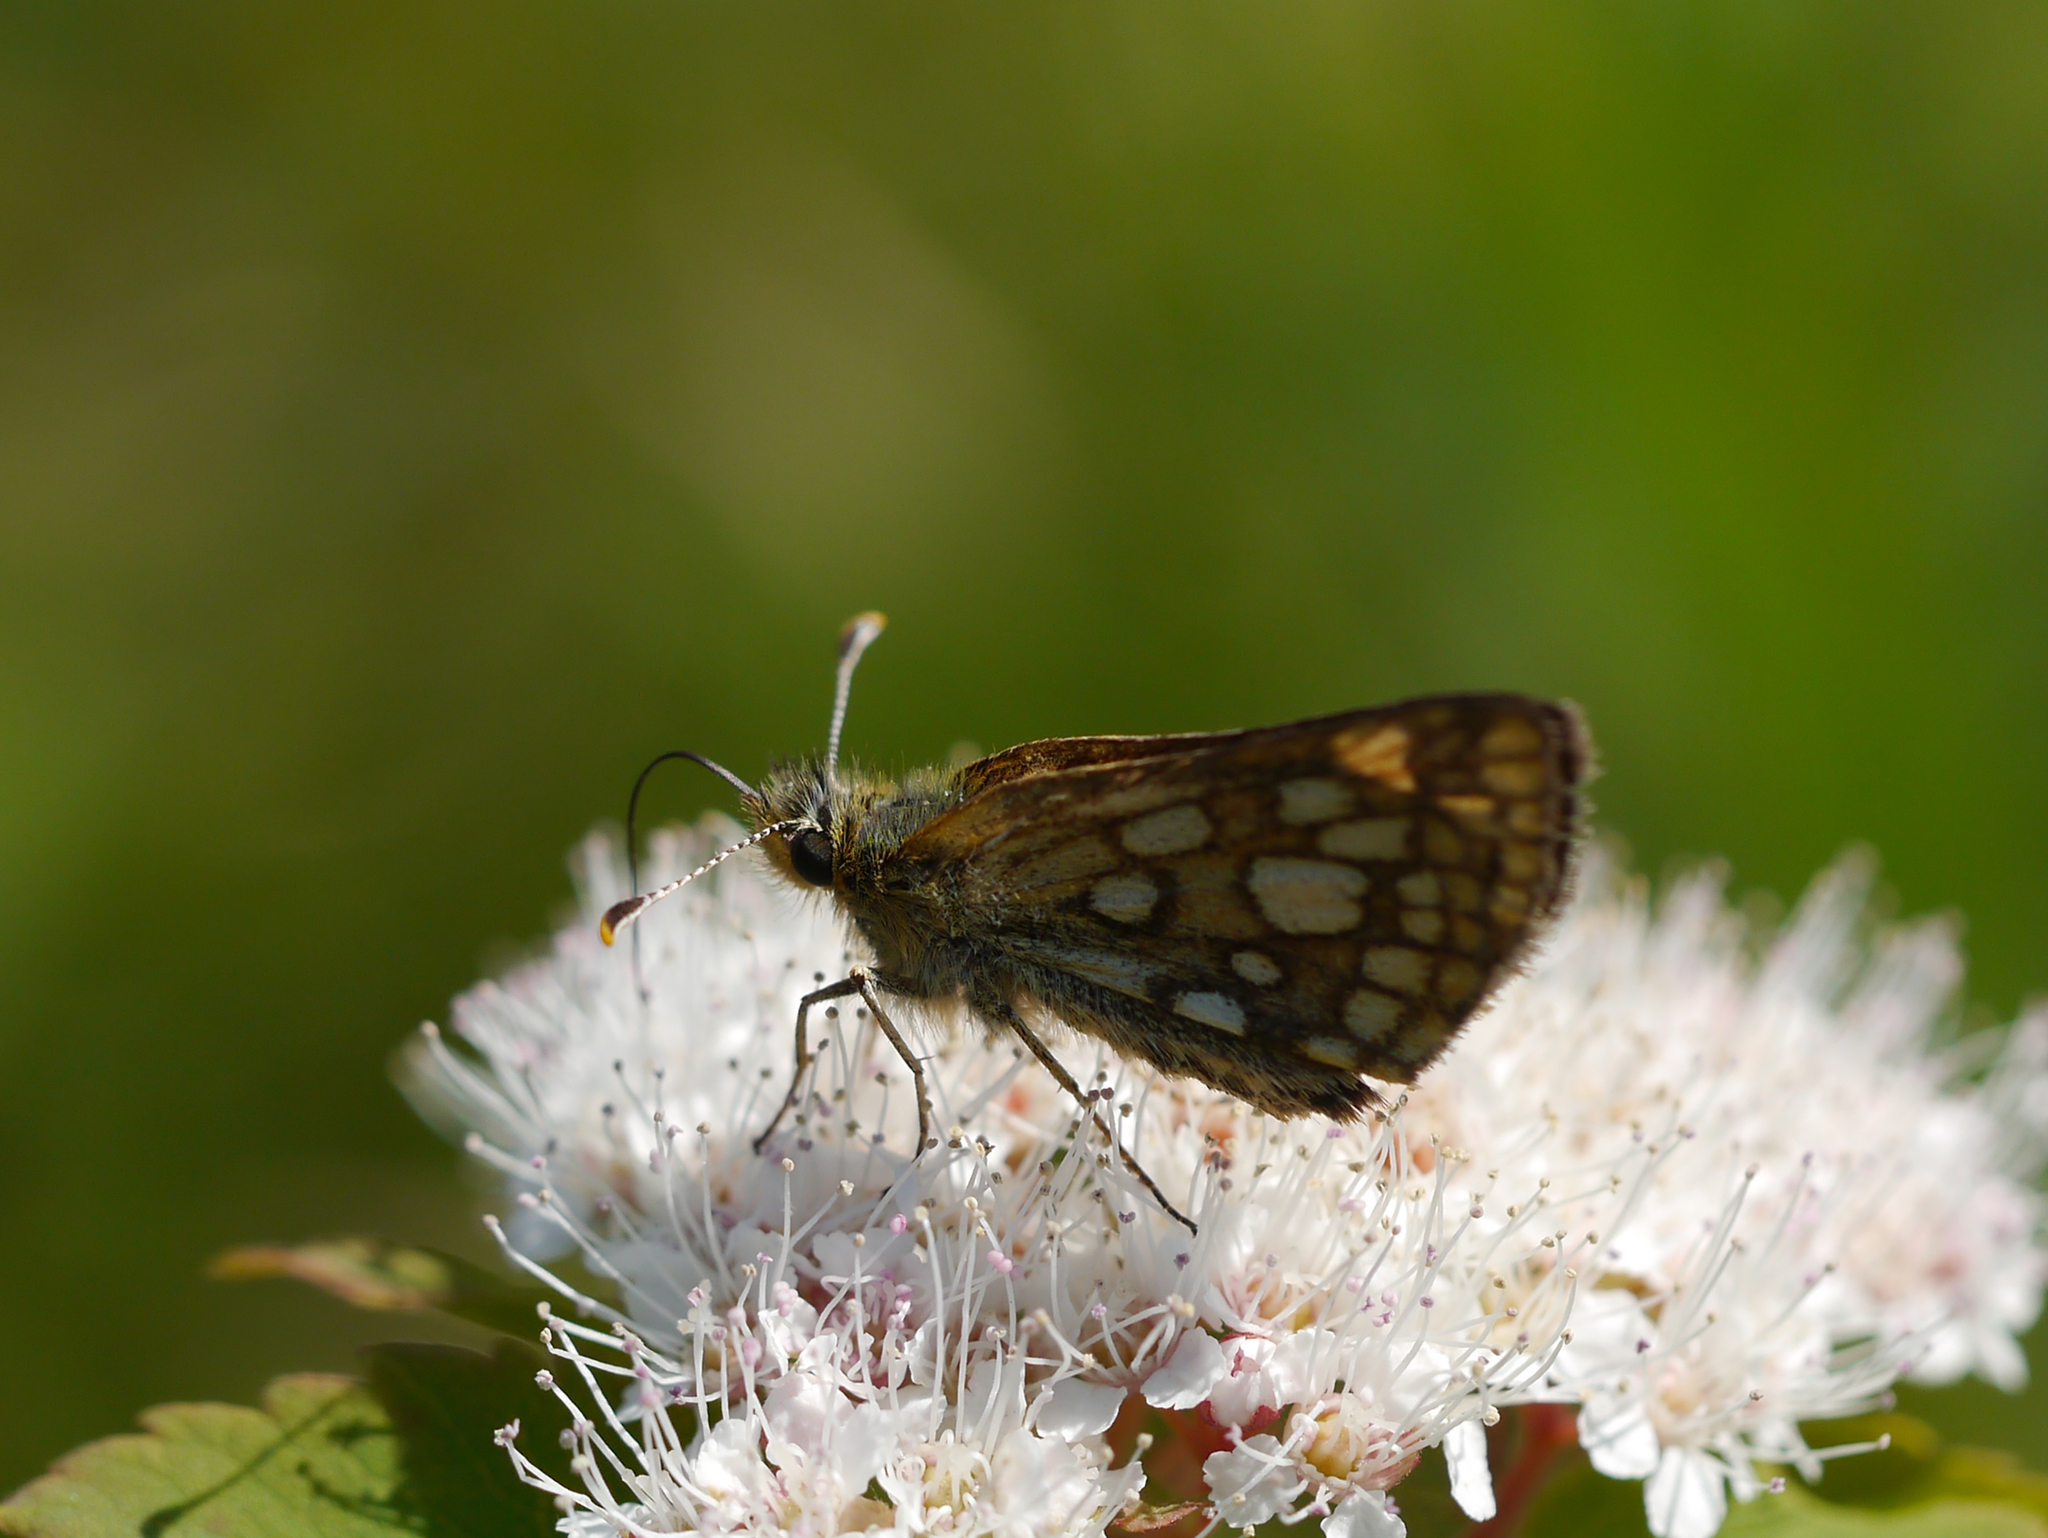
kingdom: Animalia
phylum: Arthropoda
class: Insecta
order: Lepidoptera
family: Hesperiidae
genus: Carterocephalus
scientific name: Carterocephalus skada
